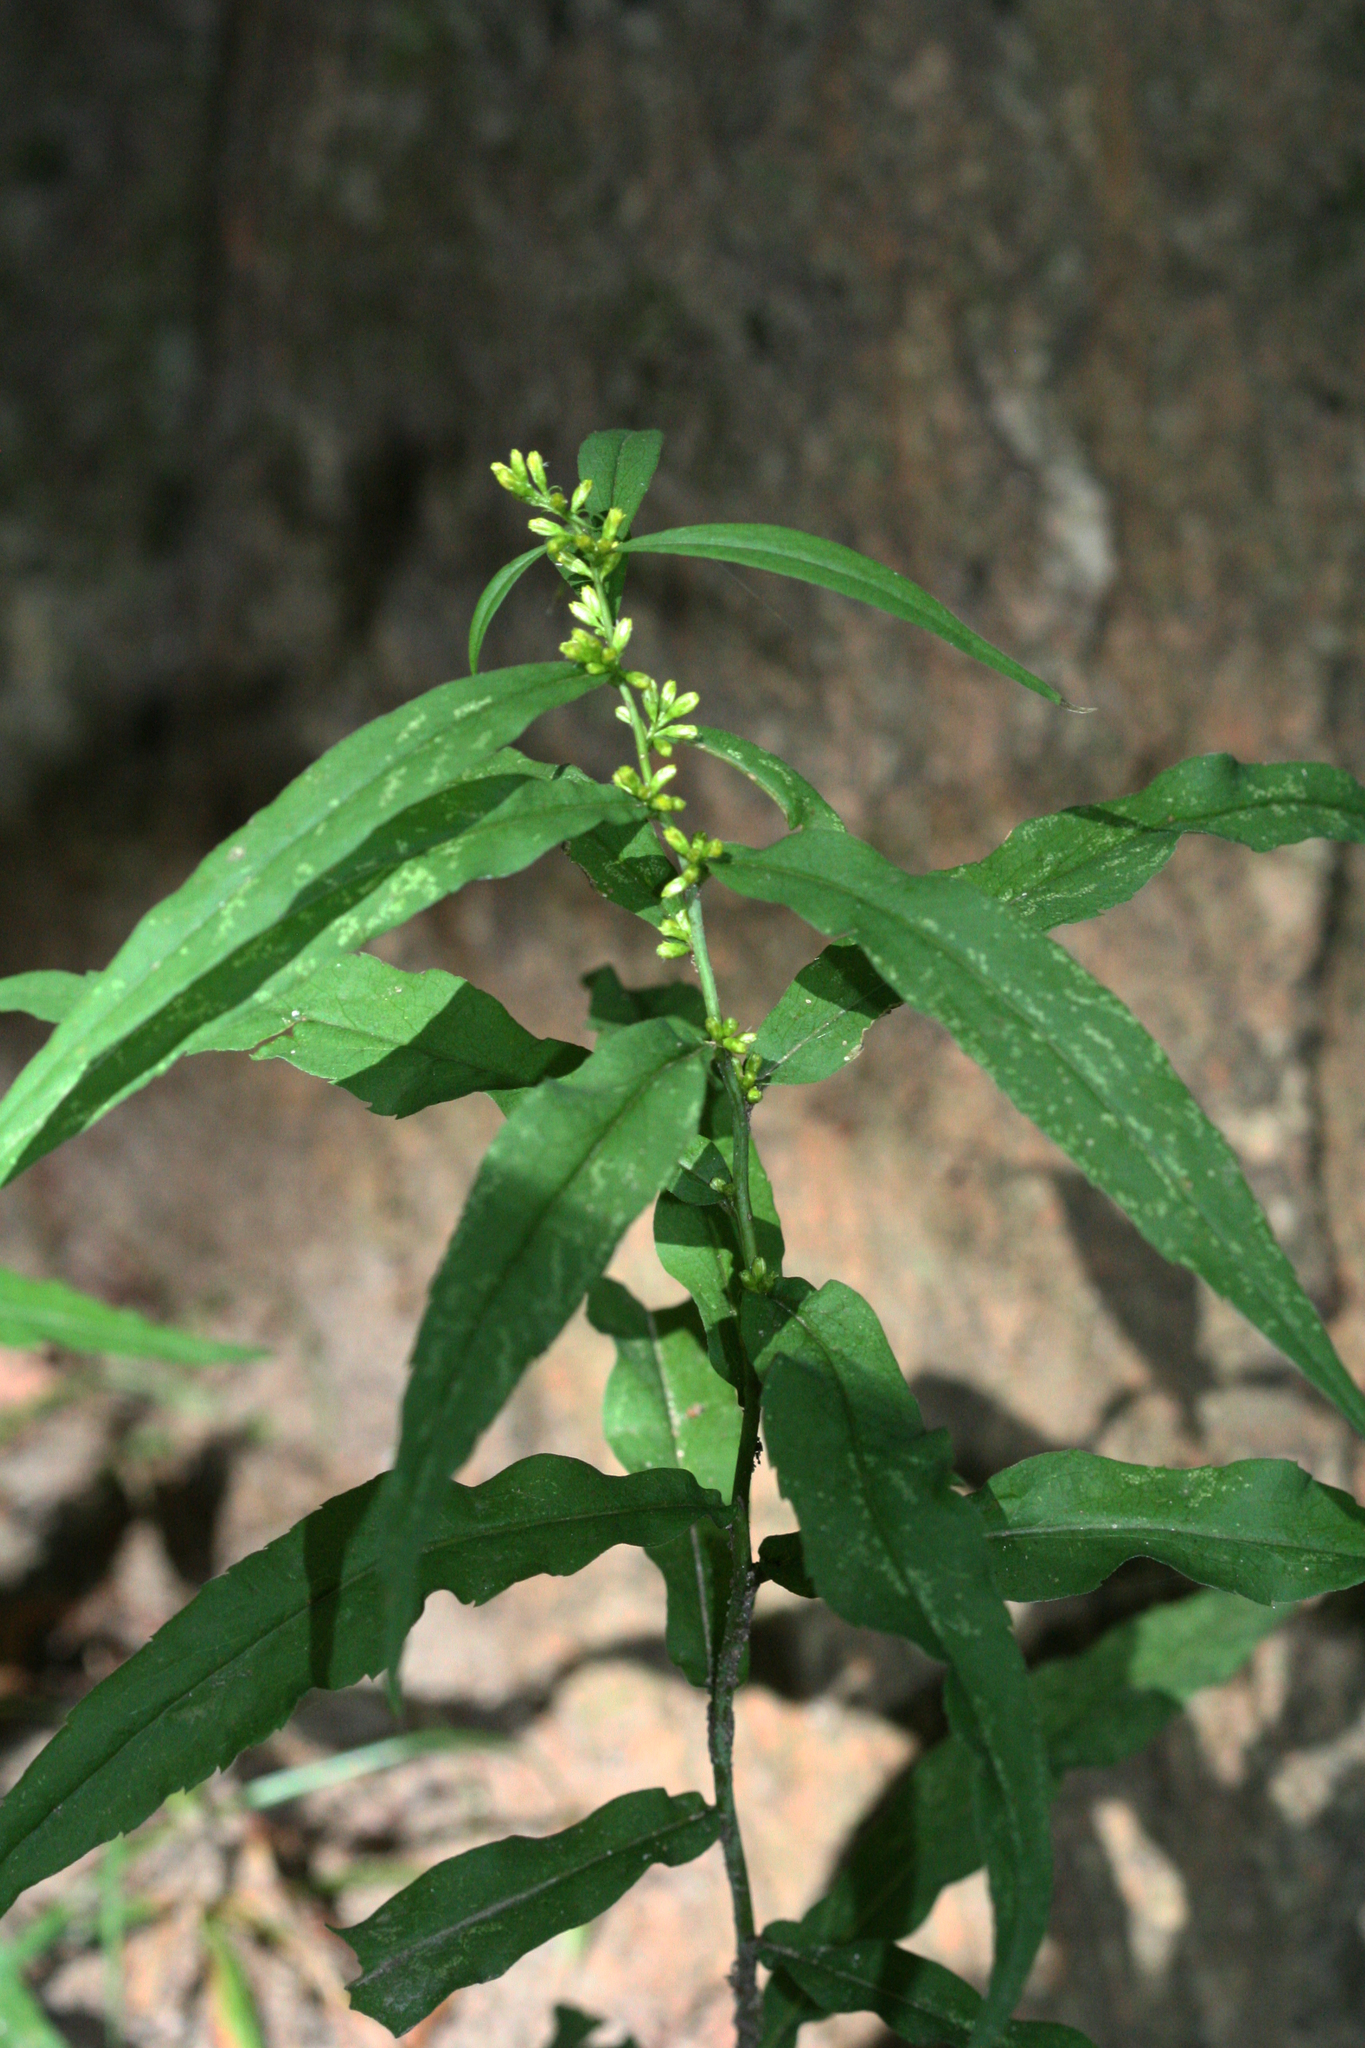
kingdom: Plantae
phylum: Tracheophyta
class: Magnoliopsida
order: Asterales
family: Asteraceae
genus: Solidago
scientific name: Solidago caesia
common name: Woodland goldenrod
